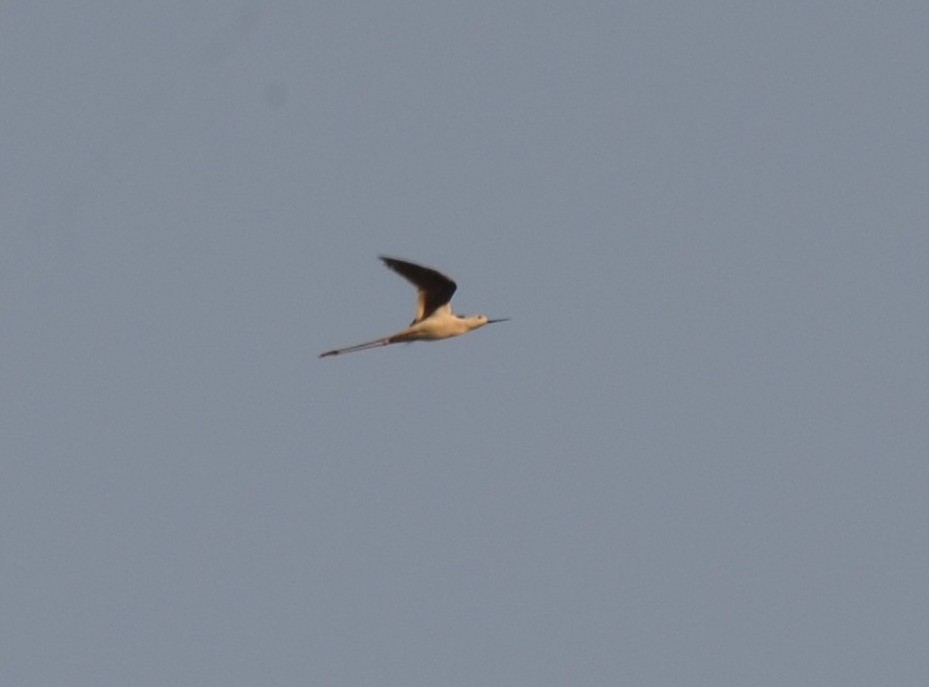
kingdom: Animalia
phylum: Chordata
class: Aves
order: Charadriiformes
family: Recurvirostridae
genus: Himantopus
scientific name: Himantopus himantopus
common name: Black-winged stilt
